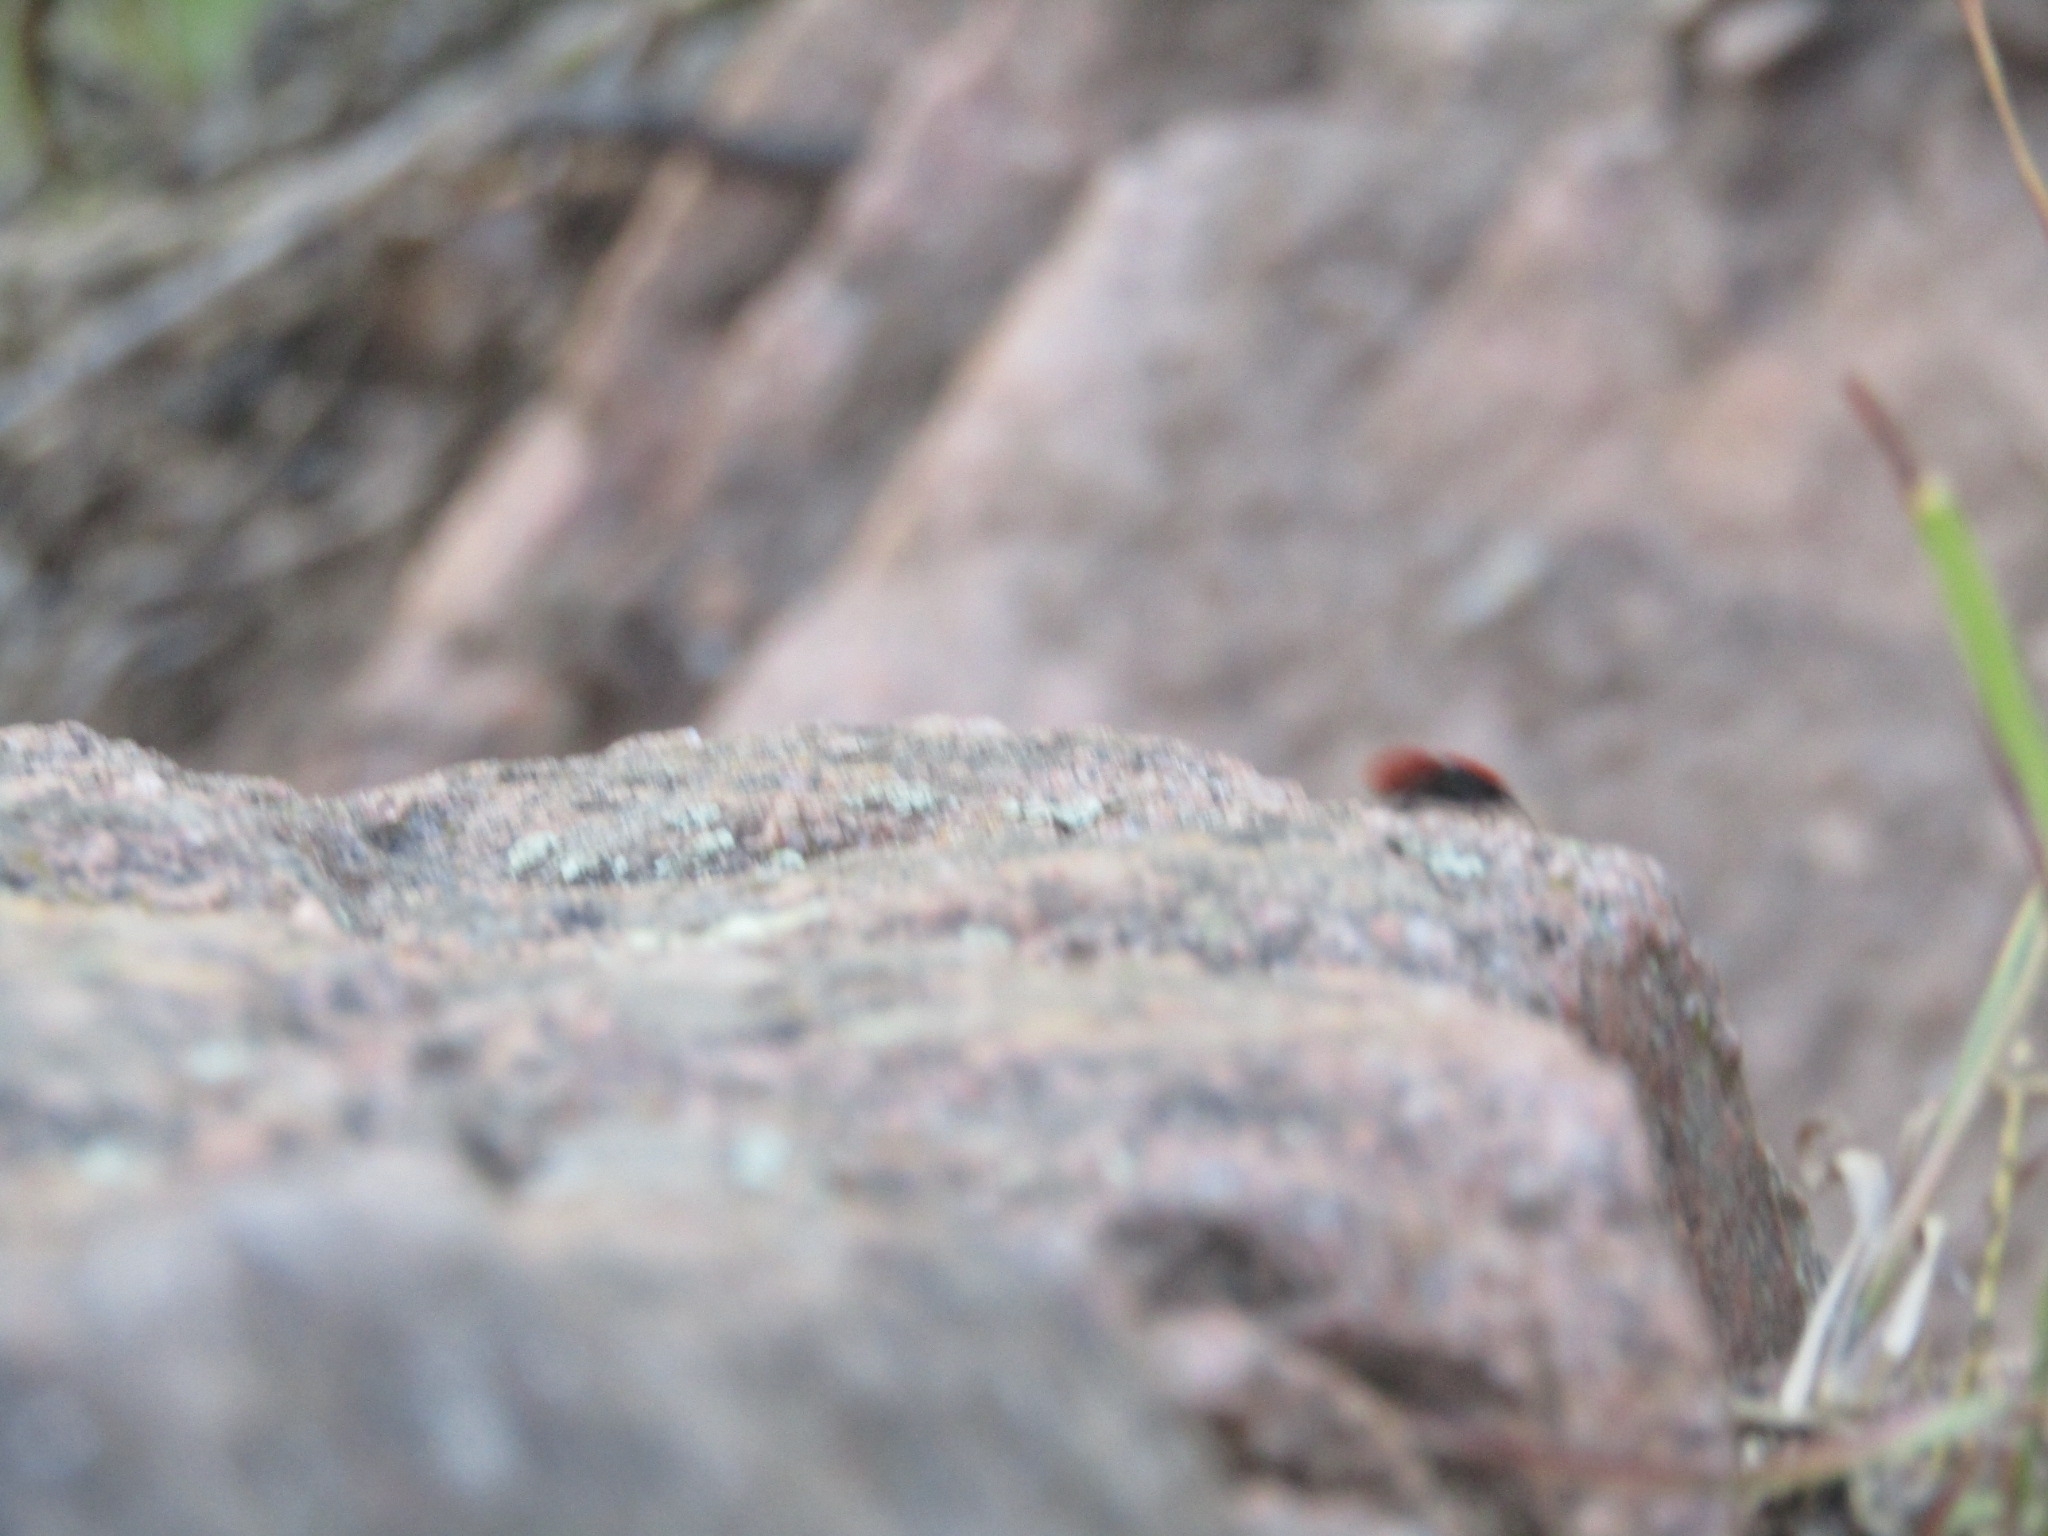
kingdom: Animalia
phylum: Arthropoda
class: Insecta
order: Hymenoptera
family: Mutillidae
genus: Dasymutilla
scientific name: Dasymutilla vestita
